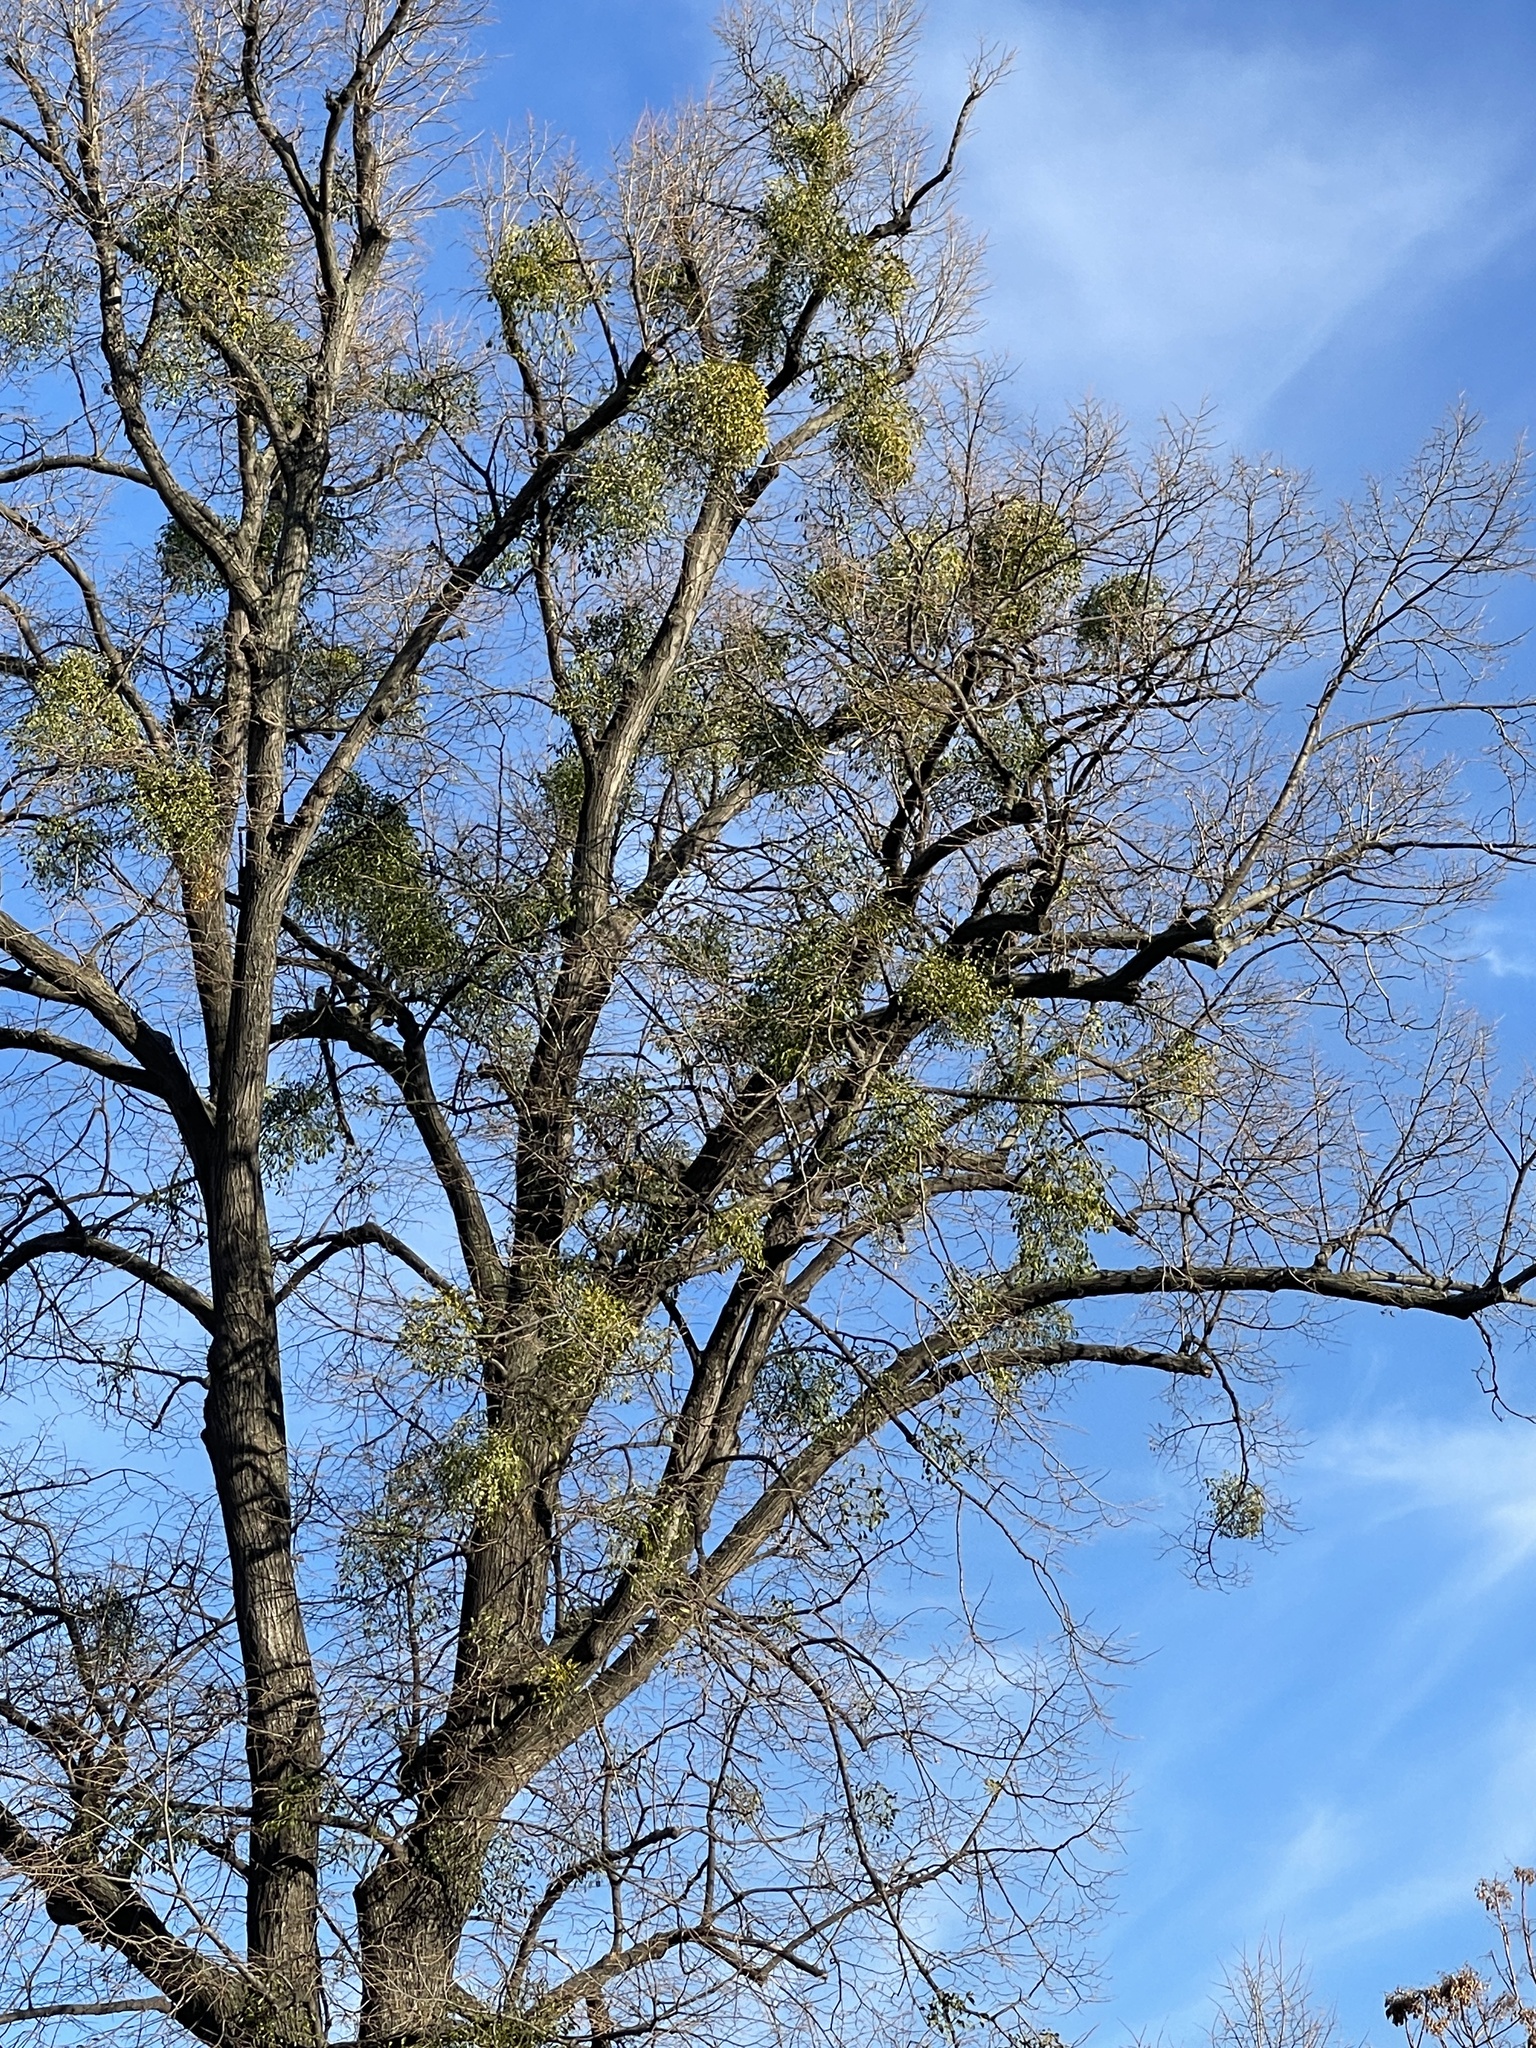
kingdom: Plantae
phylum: Tracheophyta
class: Magnoliopsida
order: Santalales
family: Viscaceae
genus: Viscum
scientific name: Viscum album
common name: Mistletoe
